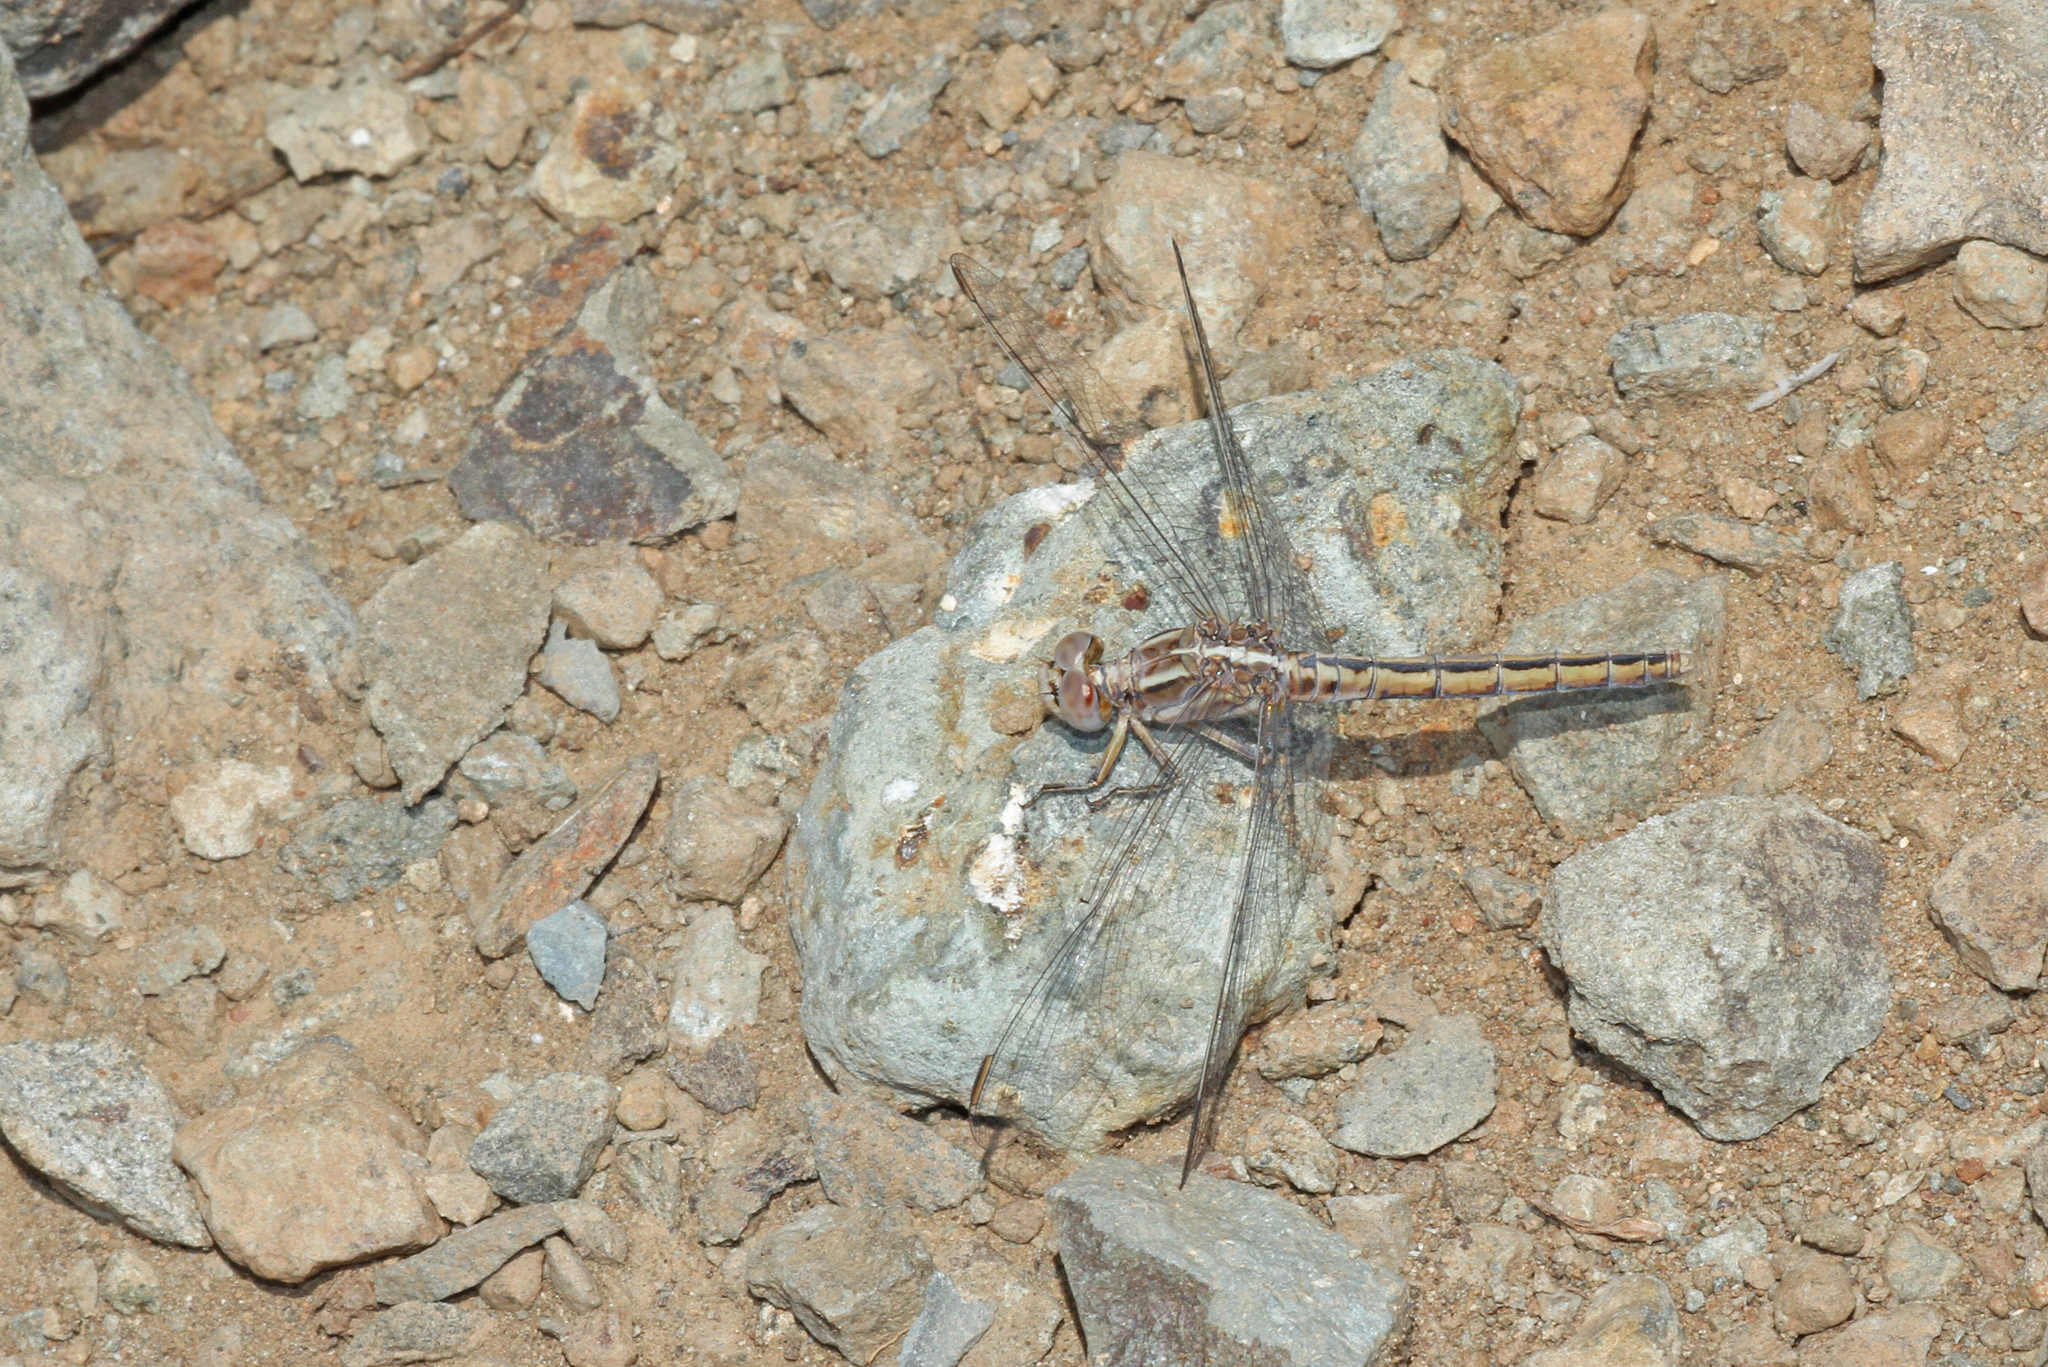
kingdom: Animalia
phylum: Arthropoda
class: Insecta
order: Odonata
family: Libellulidae
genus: Orthetrum
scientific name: Orthetrum taeniolatum
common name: Small skimmer
